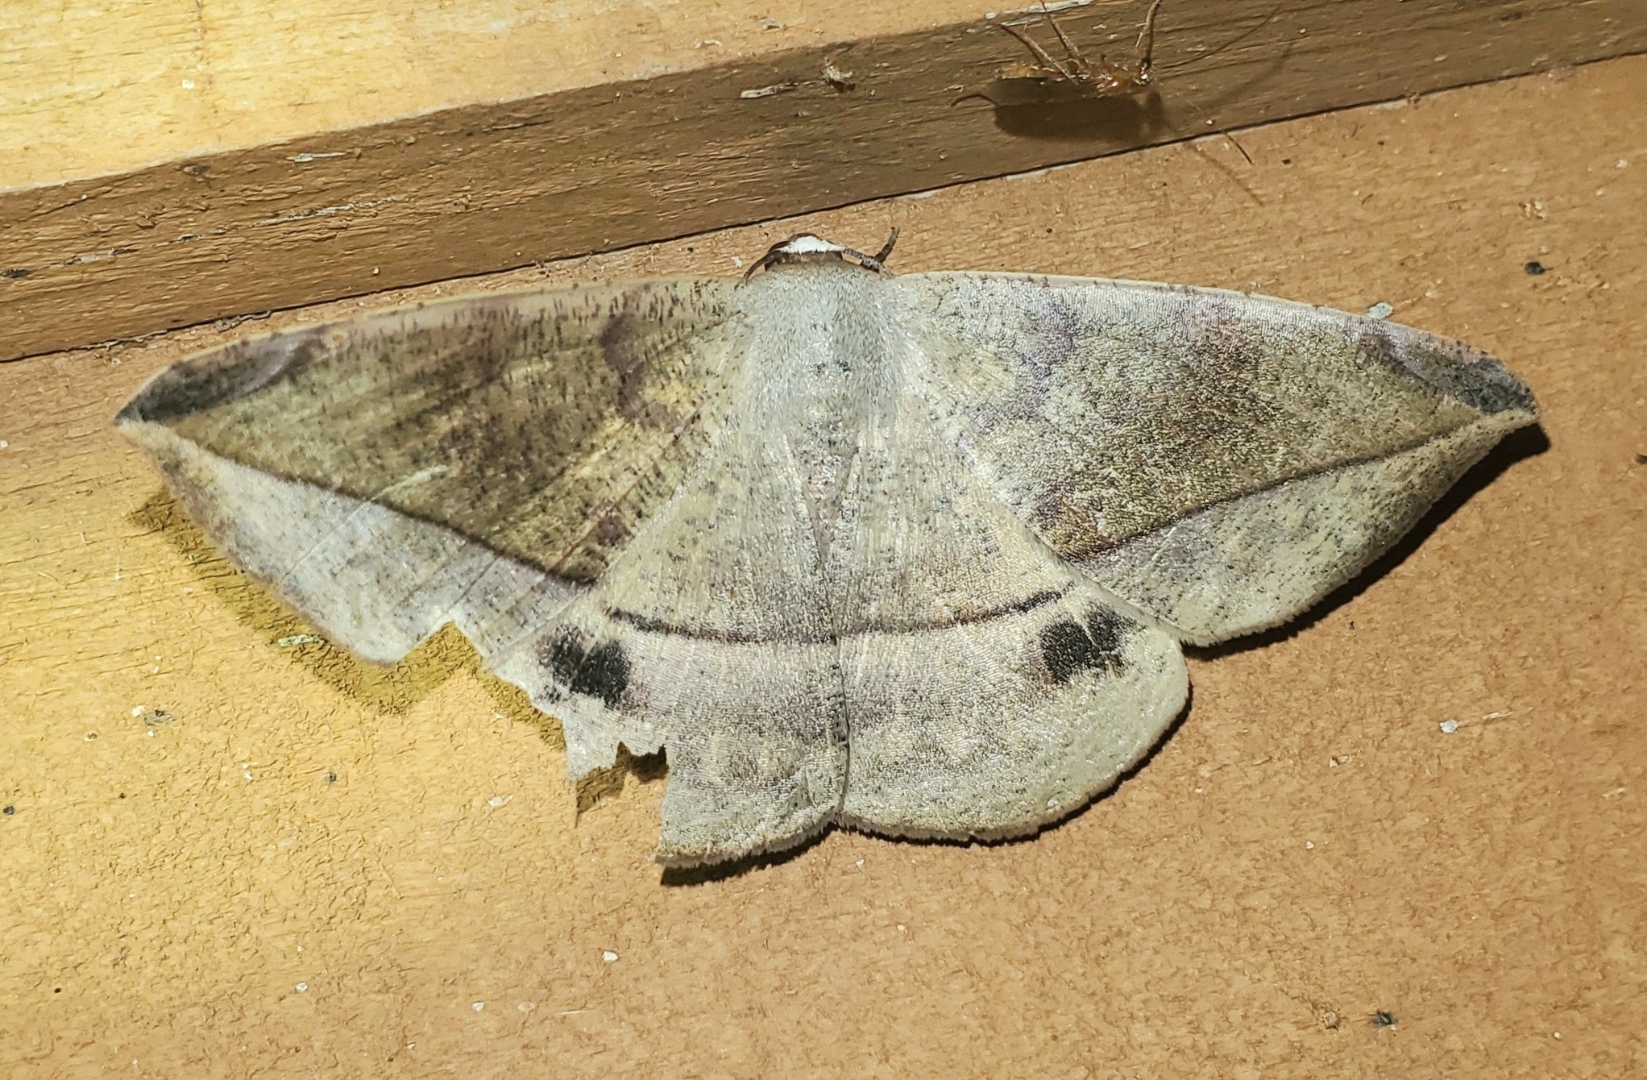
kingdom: Animalia
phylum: Arthropoda
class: Insecta
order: Lepidoptera
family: Geometridae
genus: Oxydia
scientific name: Oxydia vesulia
